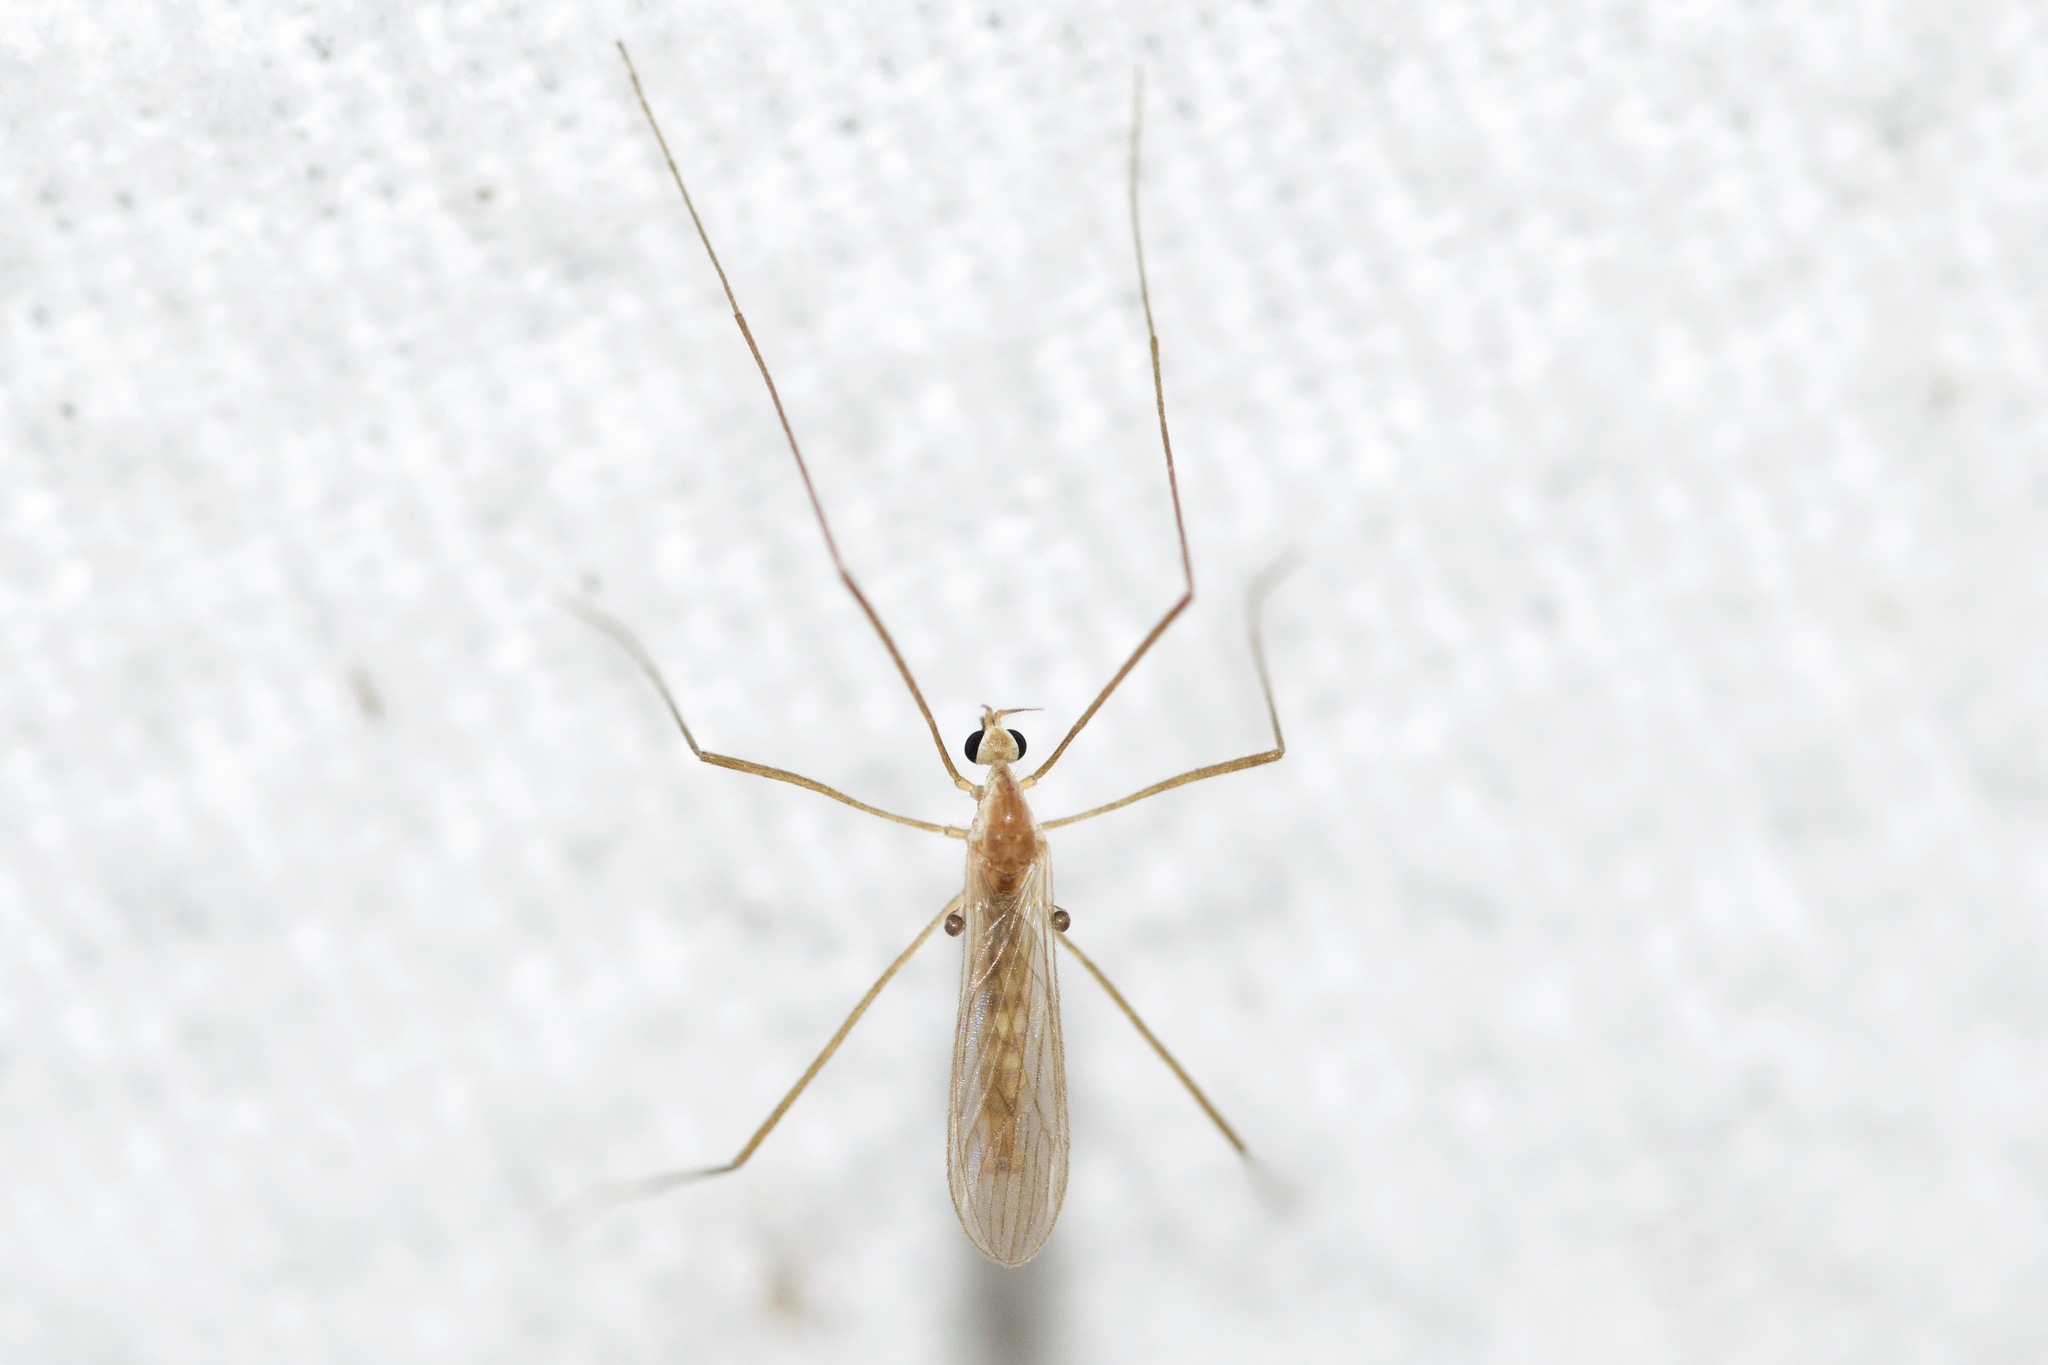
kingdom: Animalia
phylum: Arthropoda
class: Insecta
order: Diptera
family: Limoniidae
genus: Erioptera
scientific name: Erioptera septemtrionis
